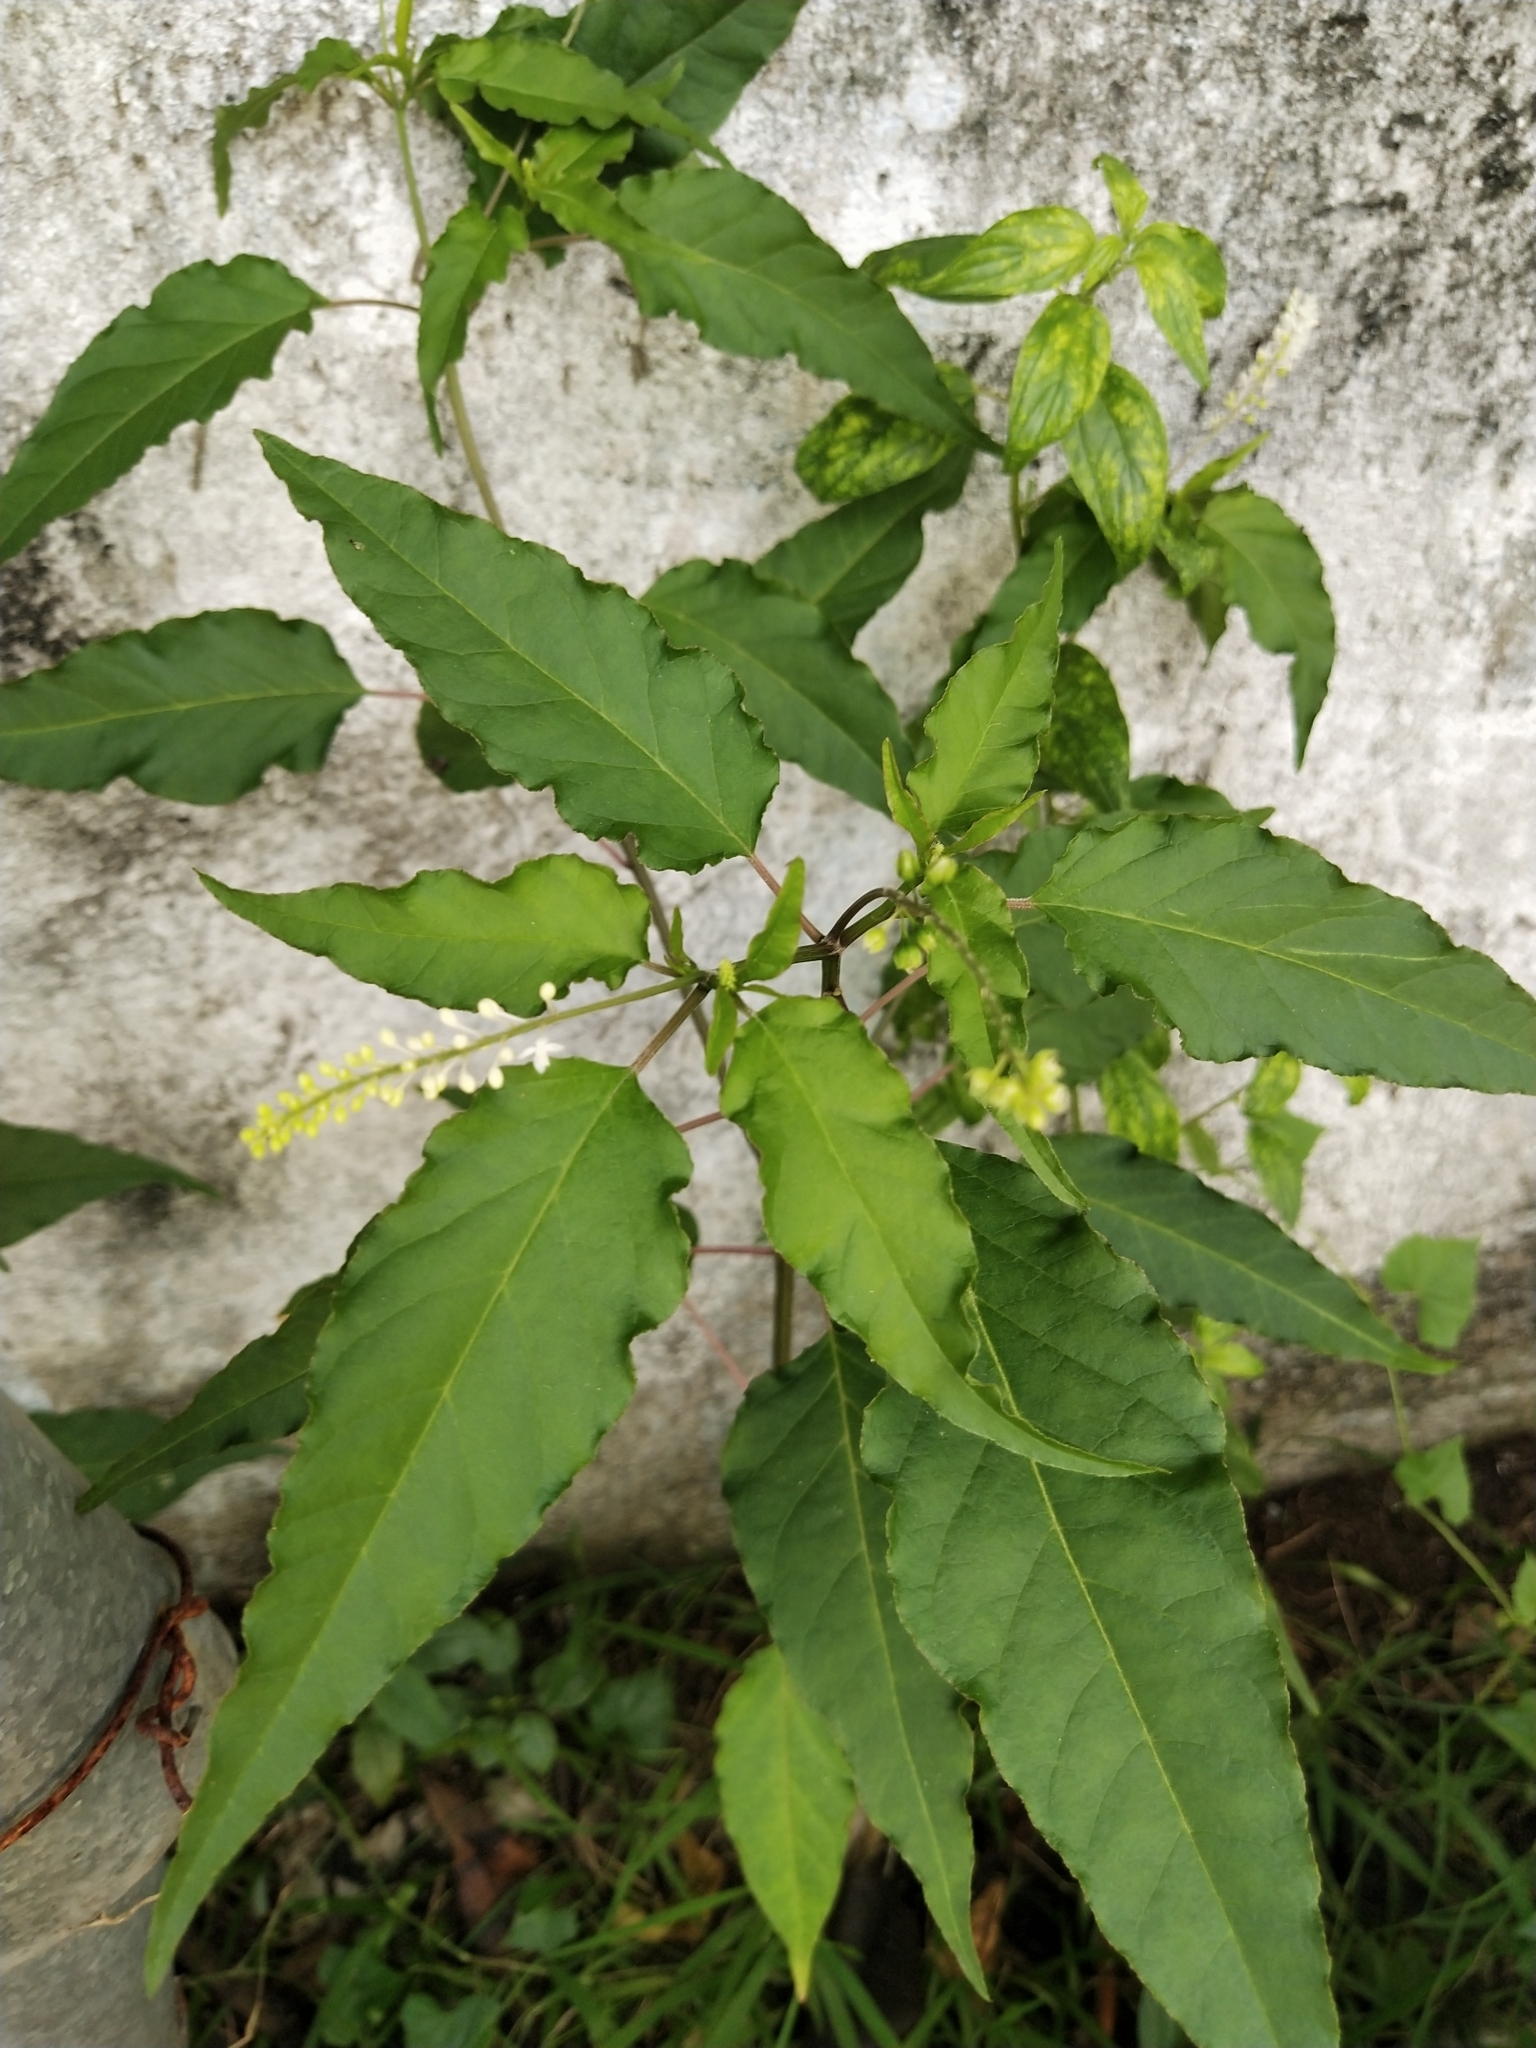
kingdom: Plantae
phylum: Tracheophyta
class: Magnoliopsida
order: Caryophyllales
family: Phytolaccaceae
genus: Rivina
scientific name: Rivina humilis
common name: Rougeplant
